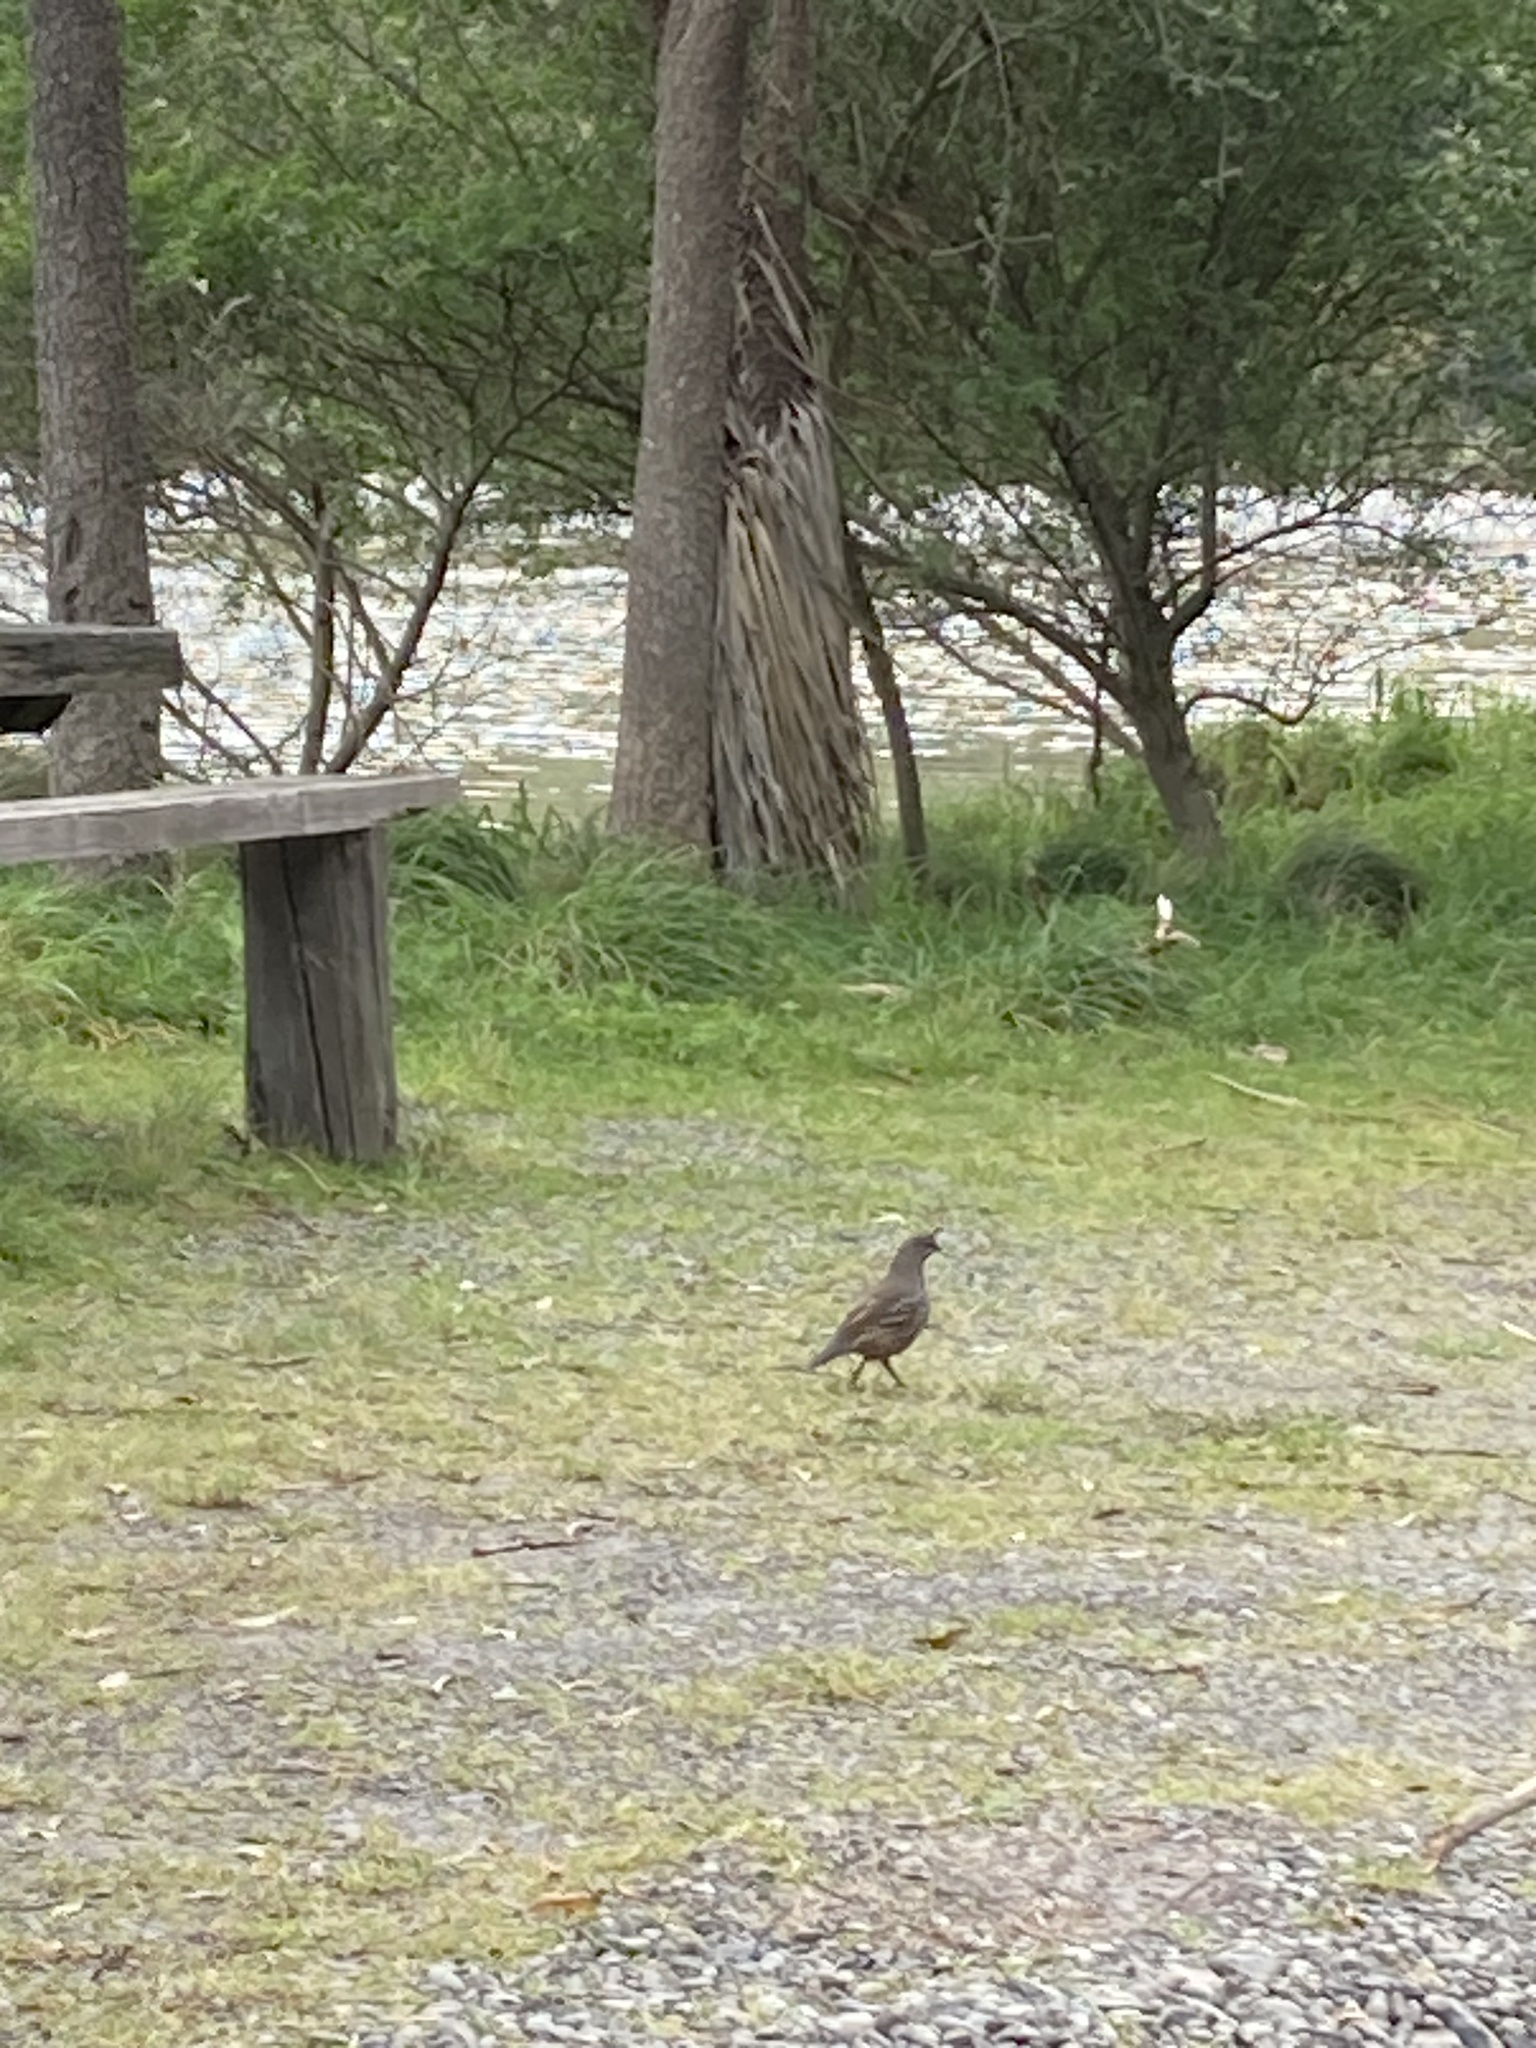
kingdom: Animalia
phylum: Chordata
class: Aves
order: Galliformes
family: Odontophoridae
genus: Callipepla
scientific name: Callipepla californica
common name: California quail
